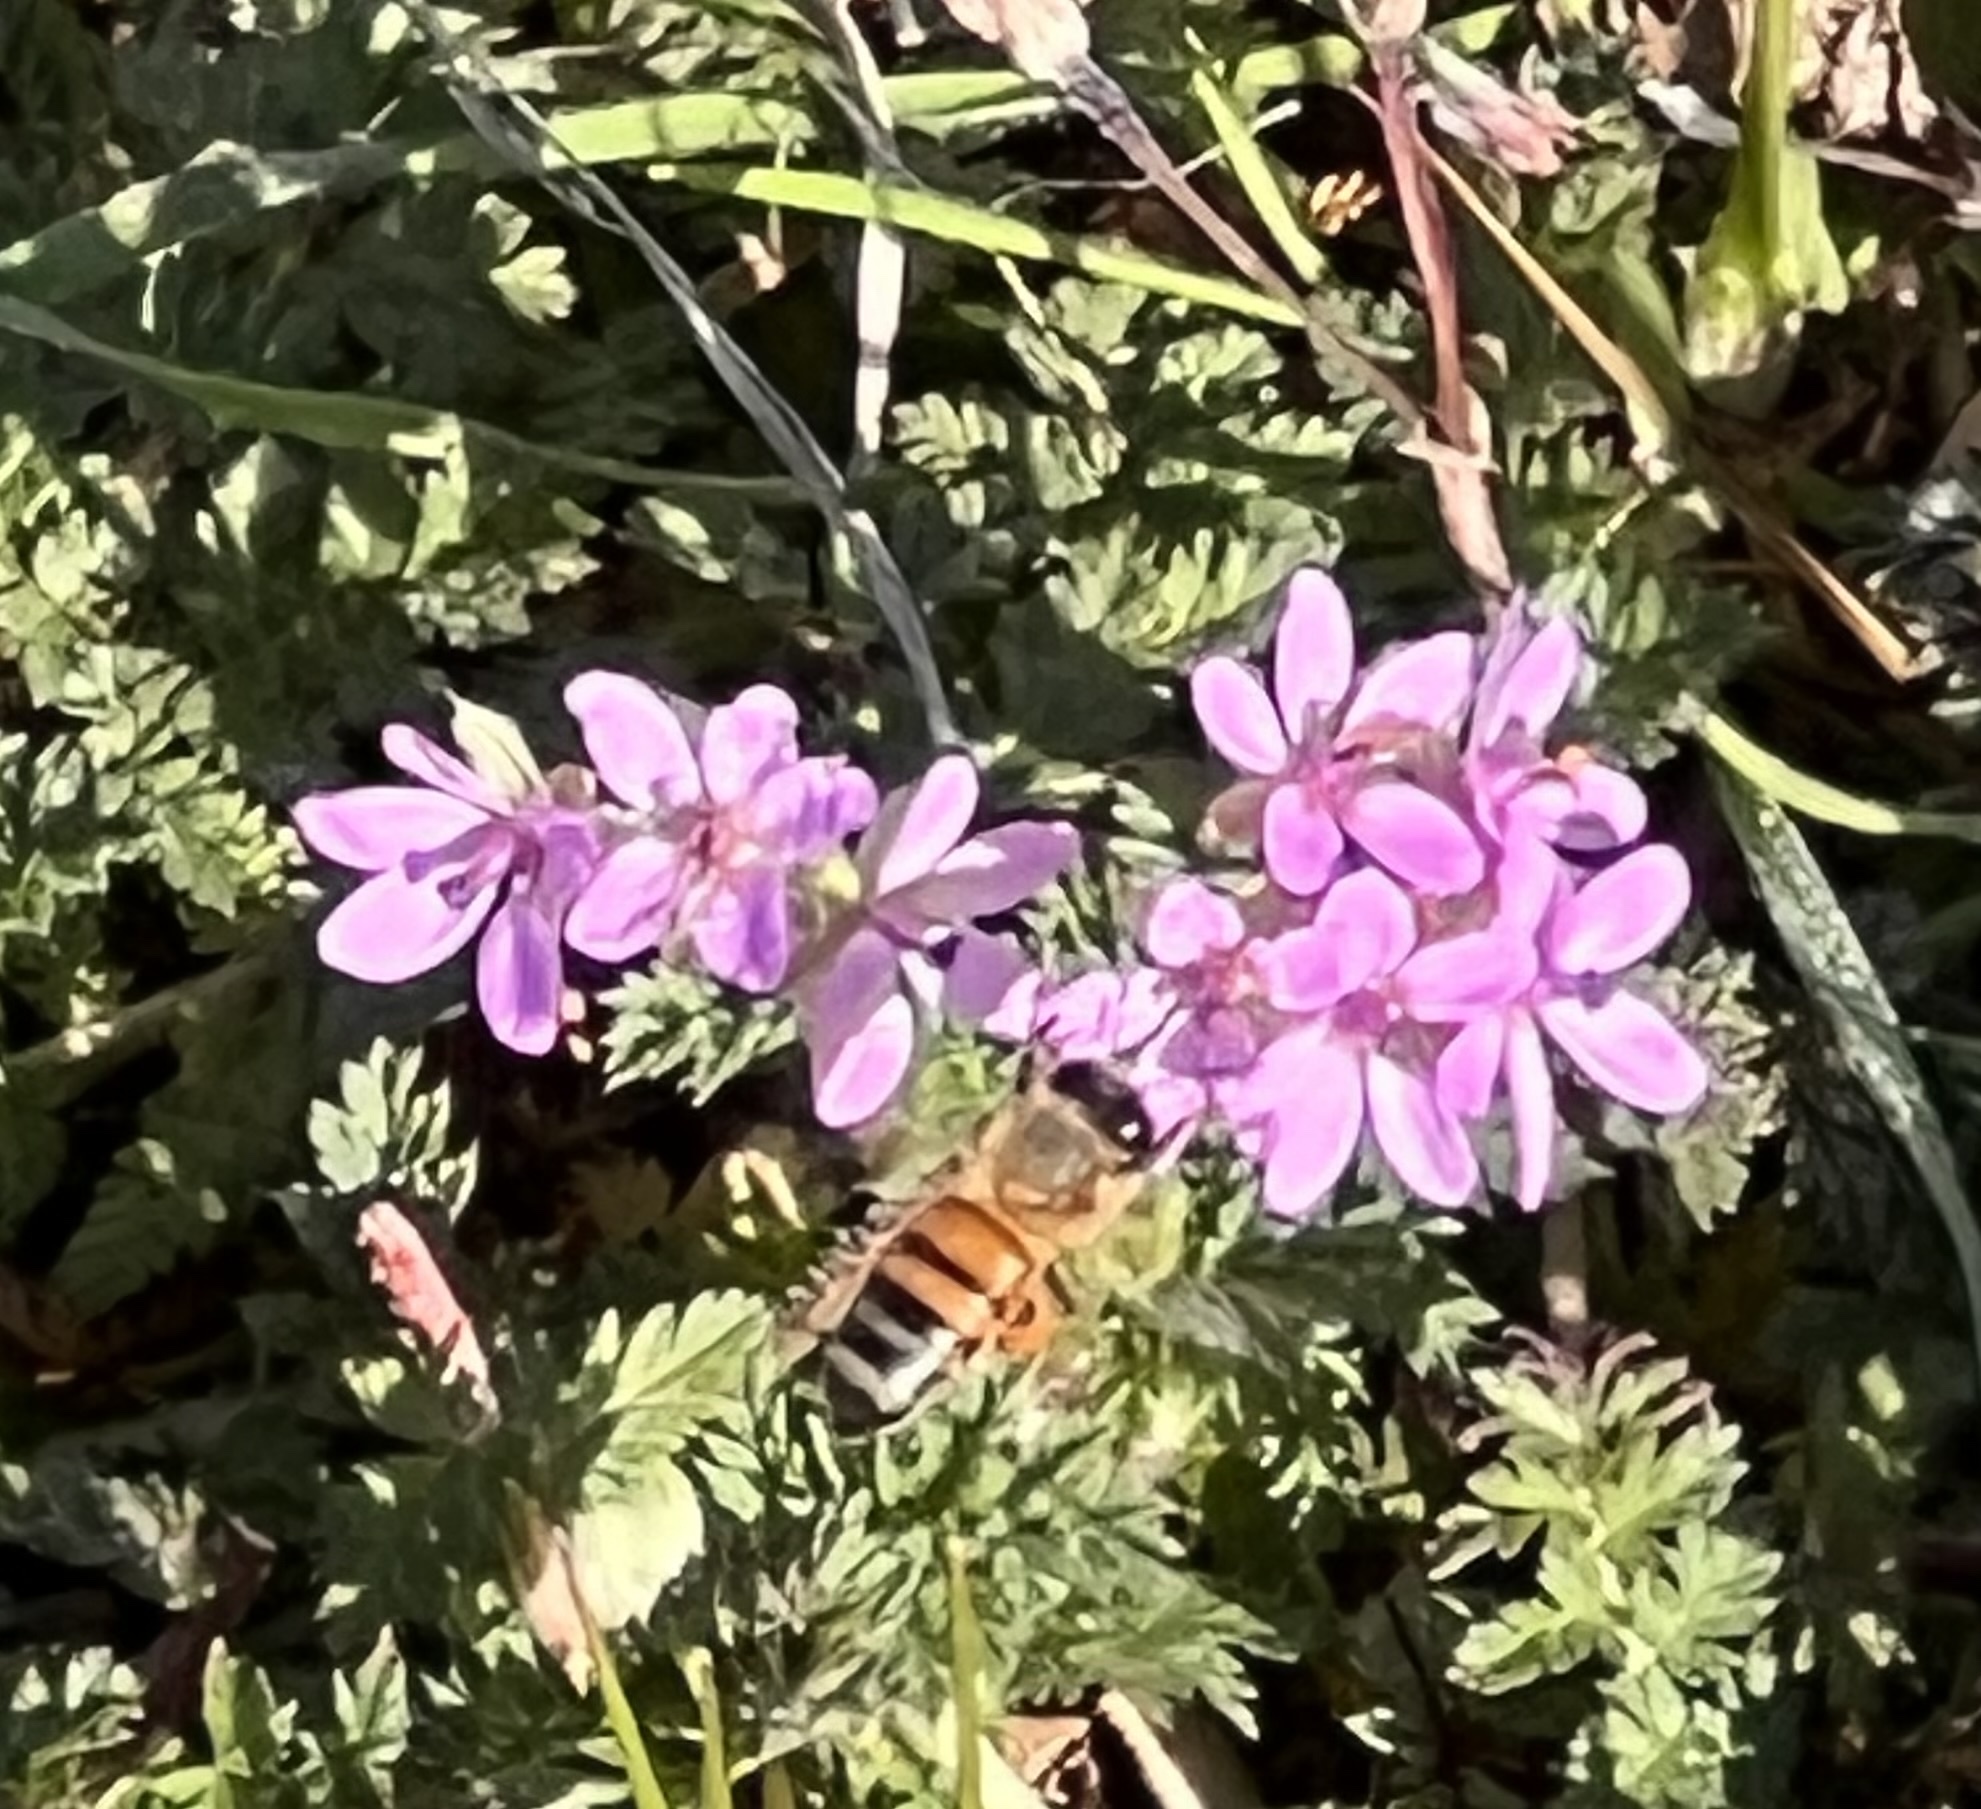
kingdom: Plantae
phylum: Tracheophyta
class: Magnoliopsida
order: Geraniales
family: Geraniaceae
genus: Erodium
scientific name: Erodium cicutarium
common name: Common stork's-bill
